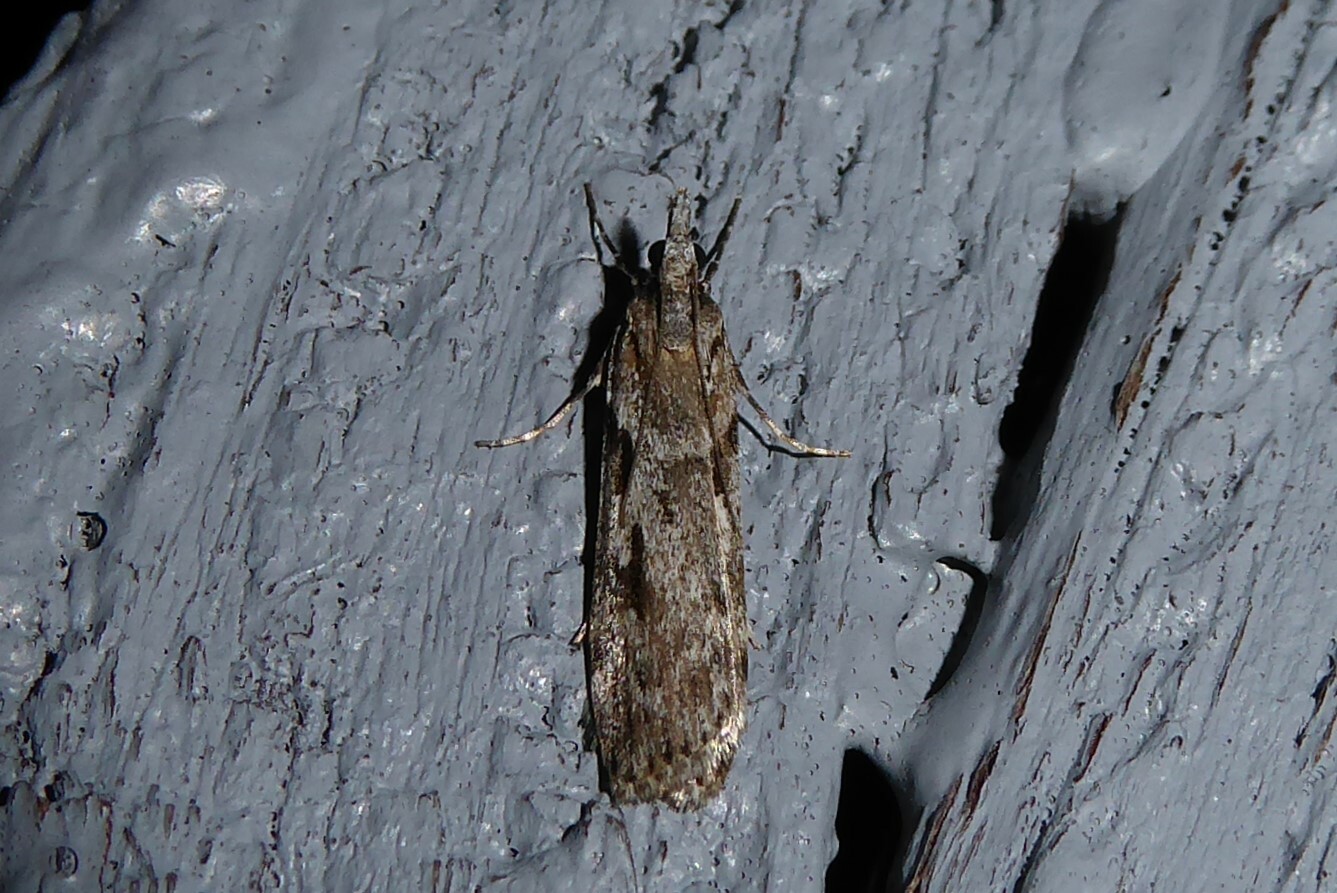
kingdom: Animalia
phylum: Arthropoda
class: Insecta
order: Lepidoptera
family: Crambidae
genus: Scoparia
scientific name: Scoparia halopis
